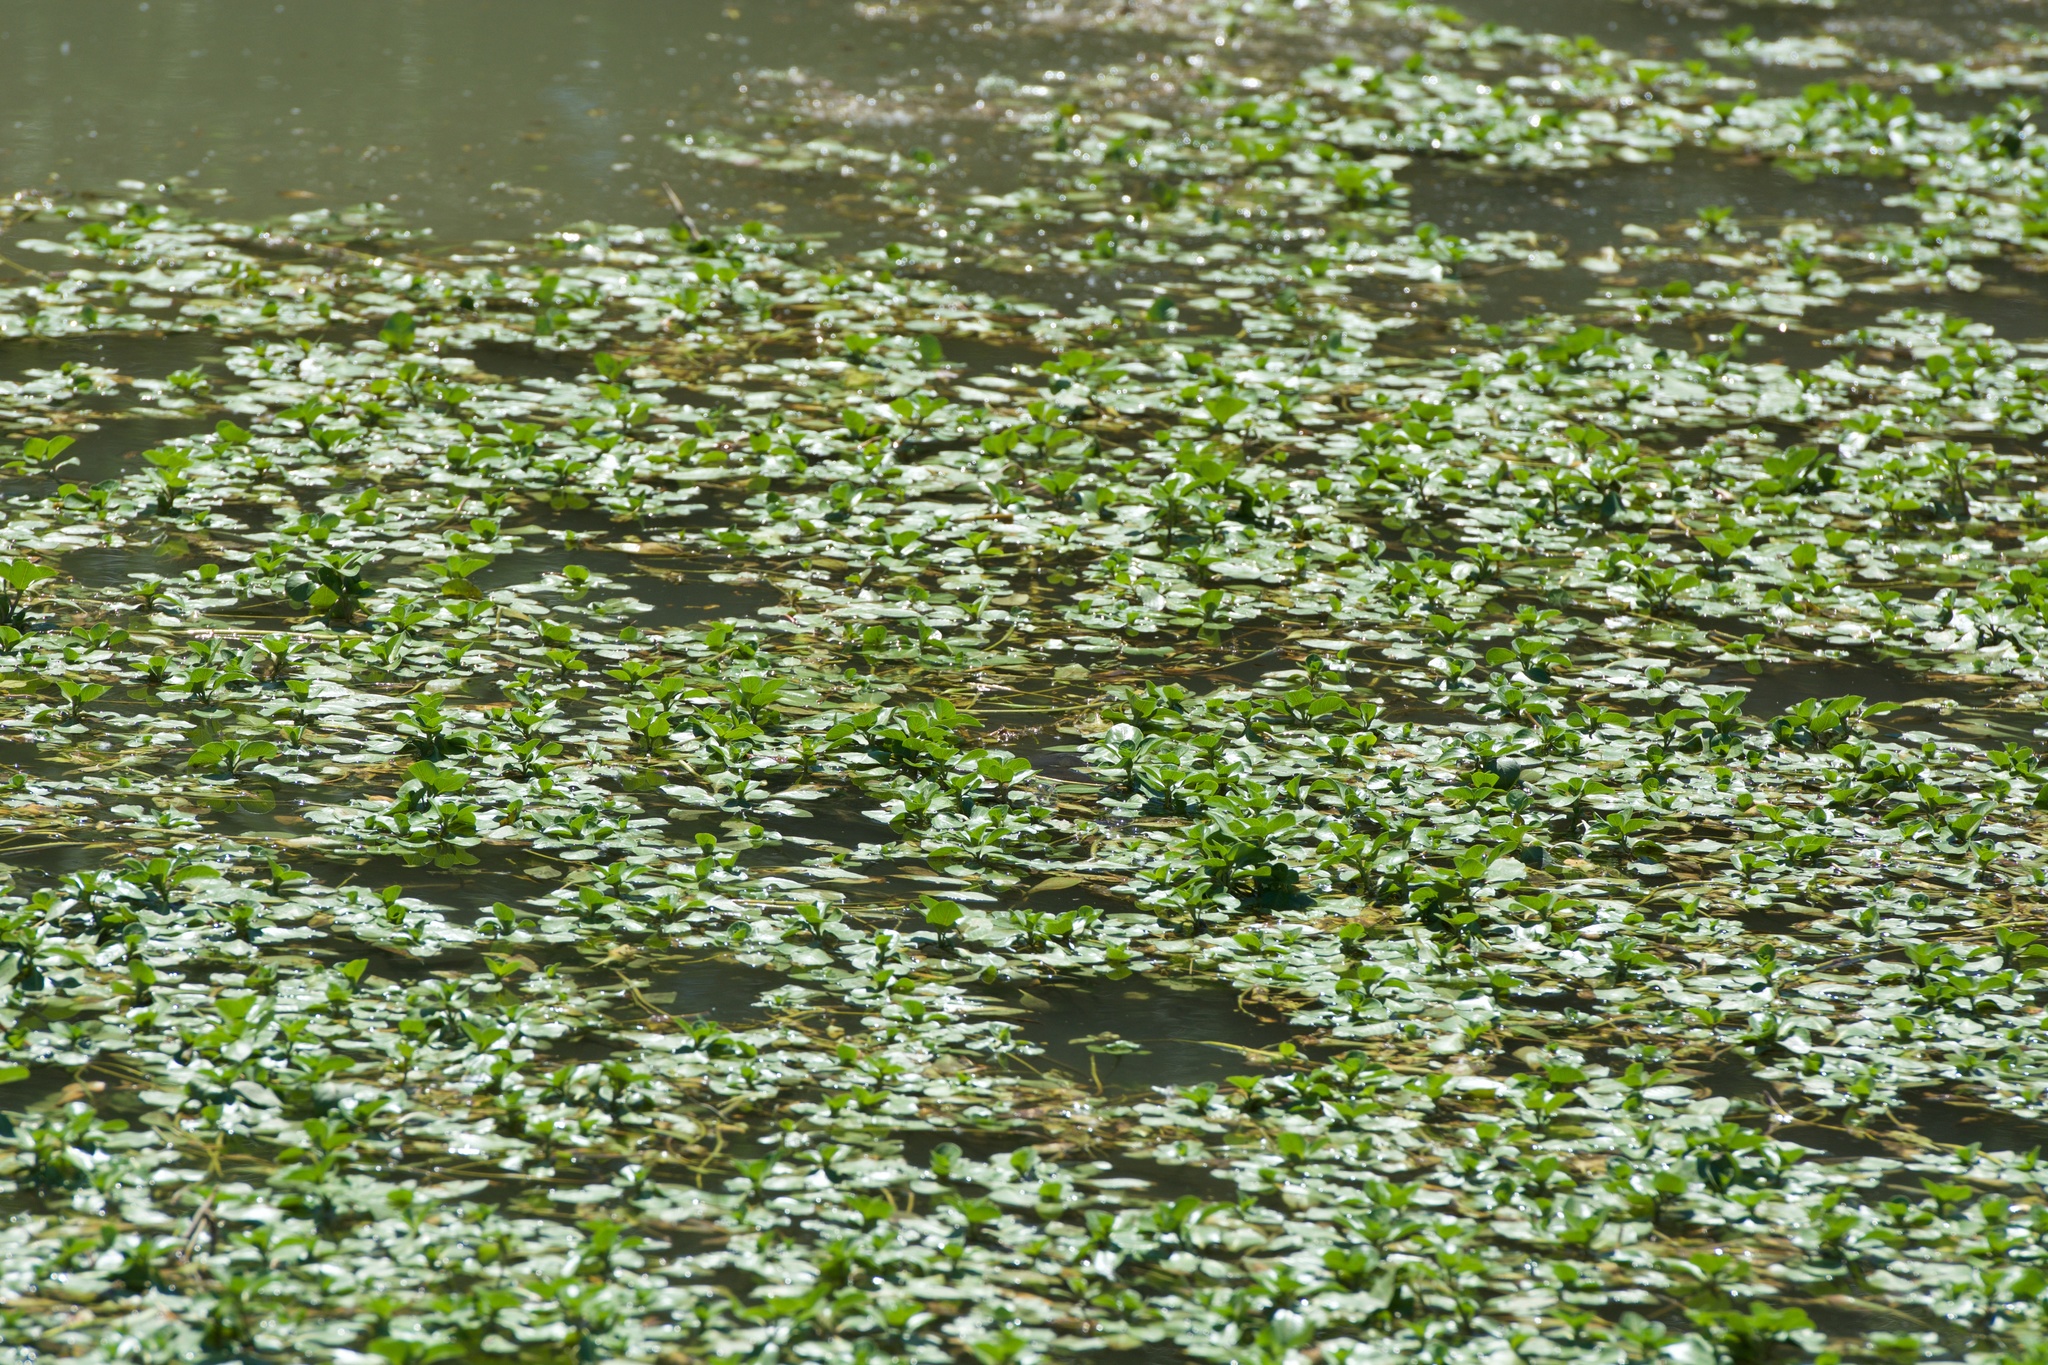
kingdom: Plantae
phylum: Tracheophyta
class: Liliopsida
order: Commelinales
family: Pontederiaceae
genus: Pontederia
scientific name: Pontederia crassipes
